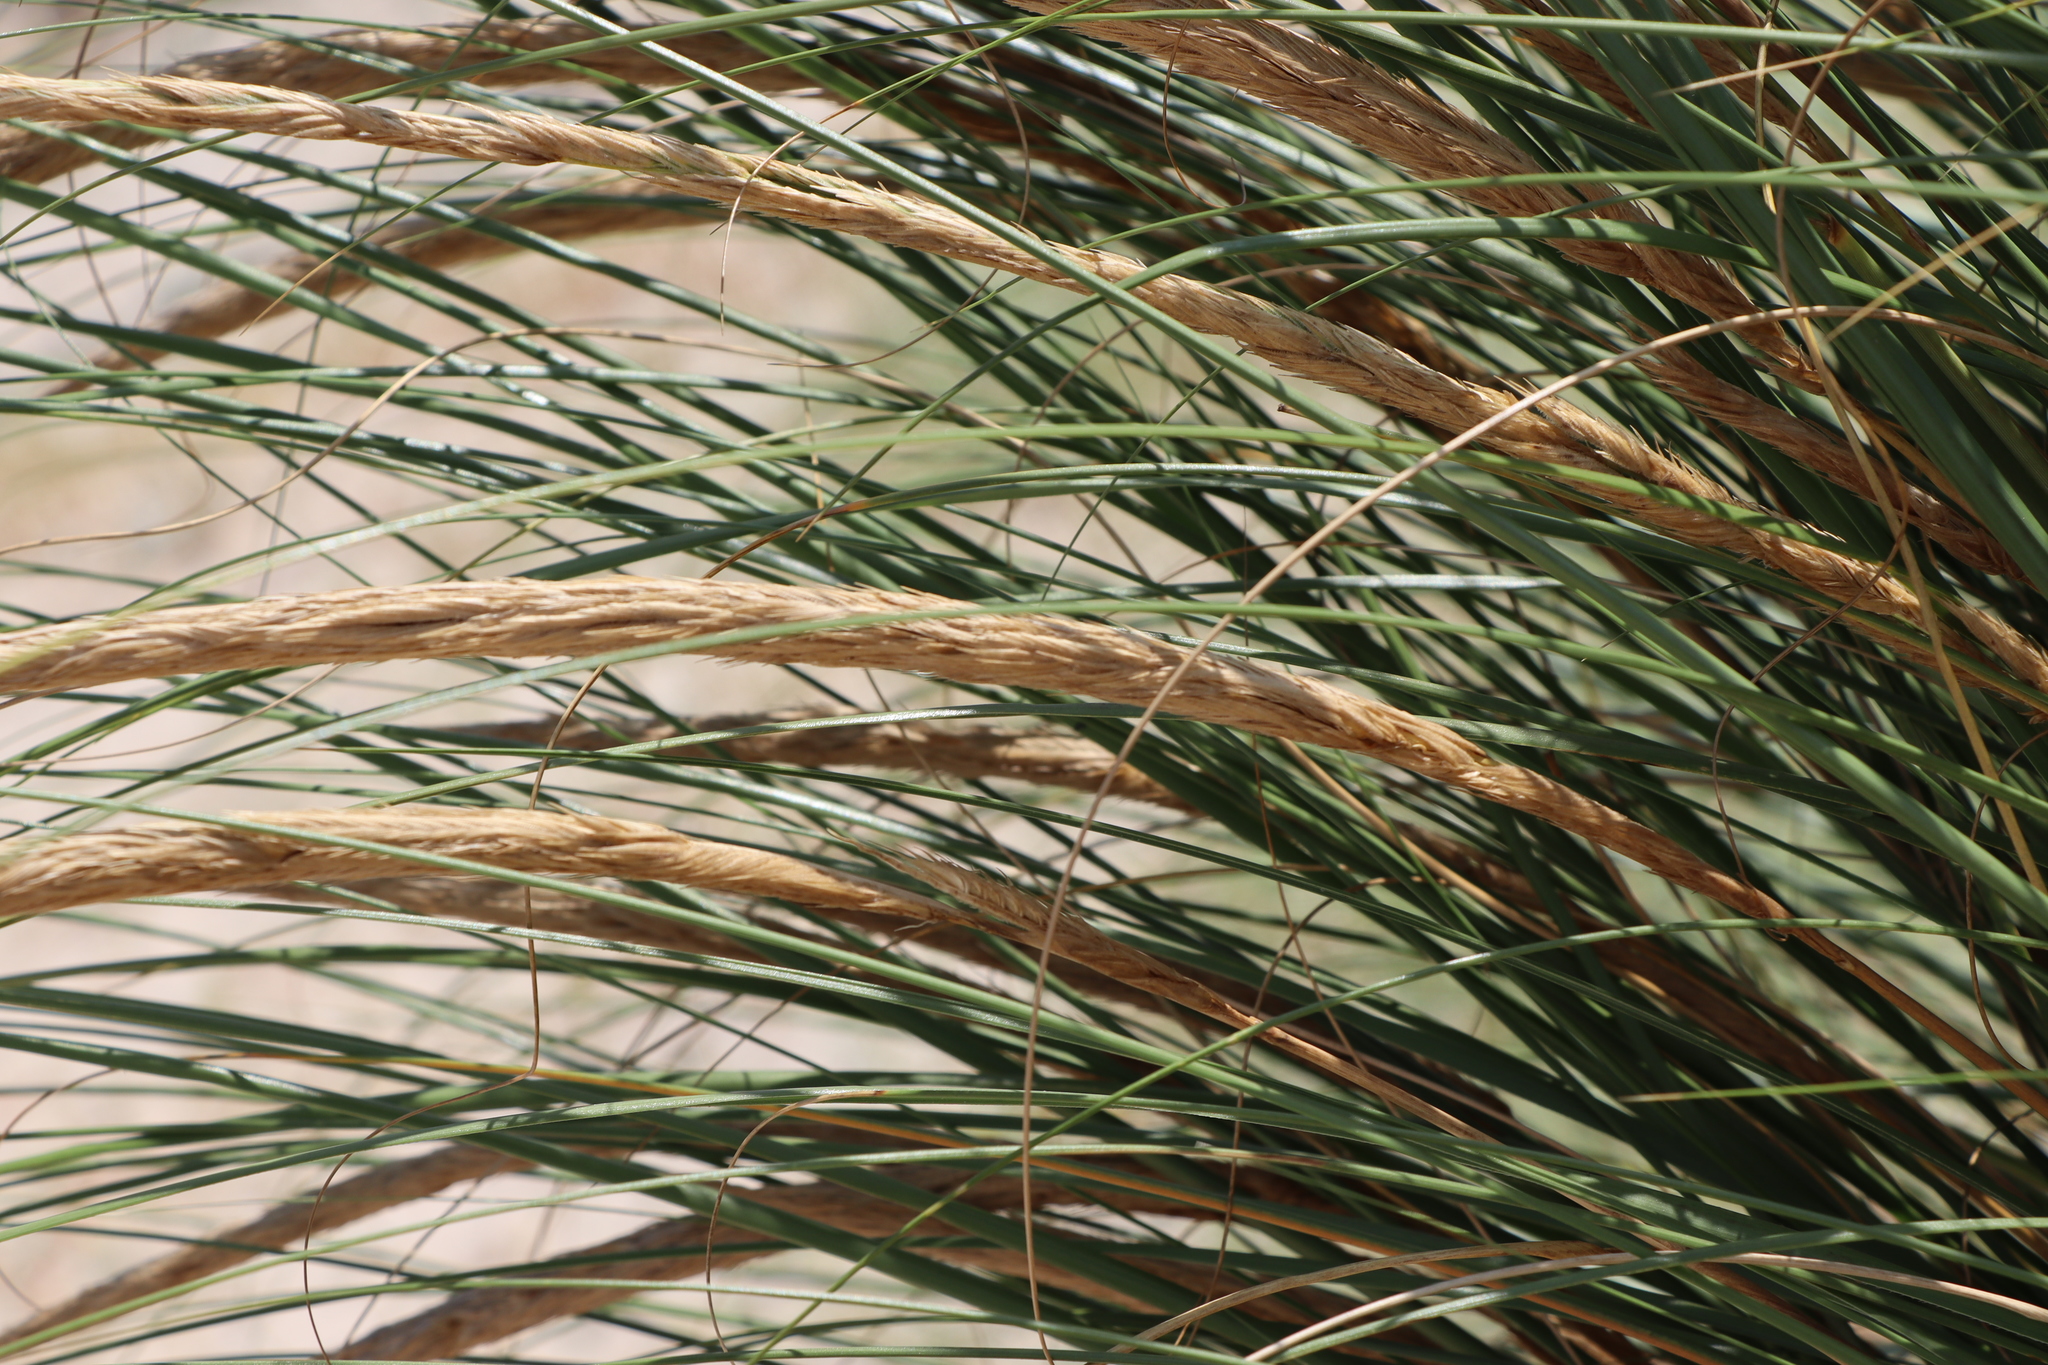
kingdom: Plantae
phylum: Tracheophyta
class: Liliopsida
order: Poales
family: Poaceae
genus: Sporobolus
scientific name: Sporobolus coarctatus
